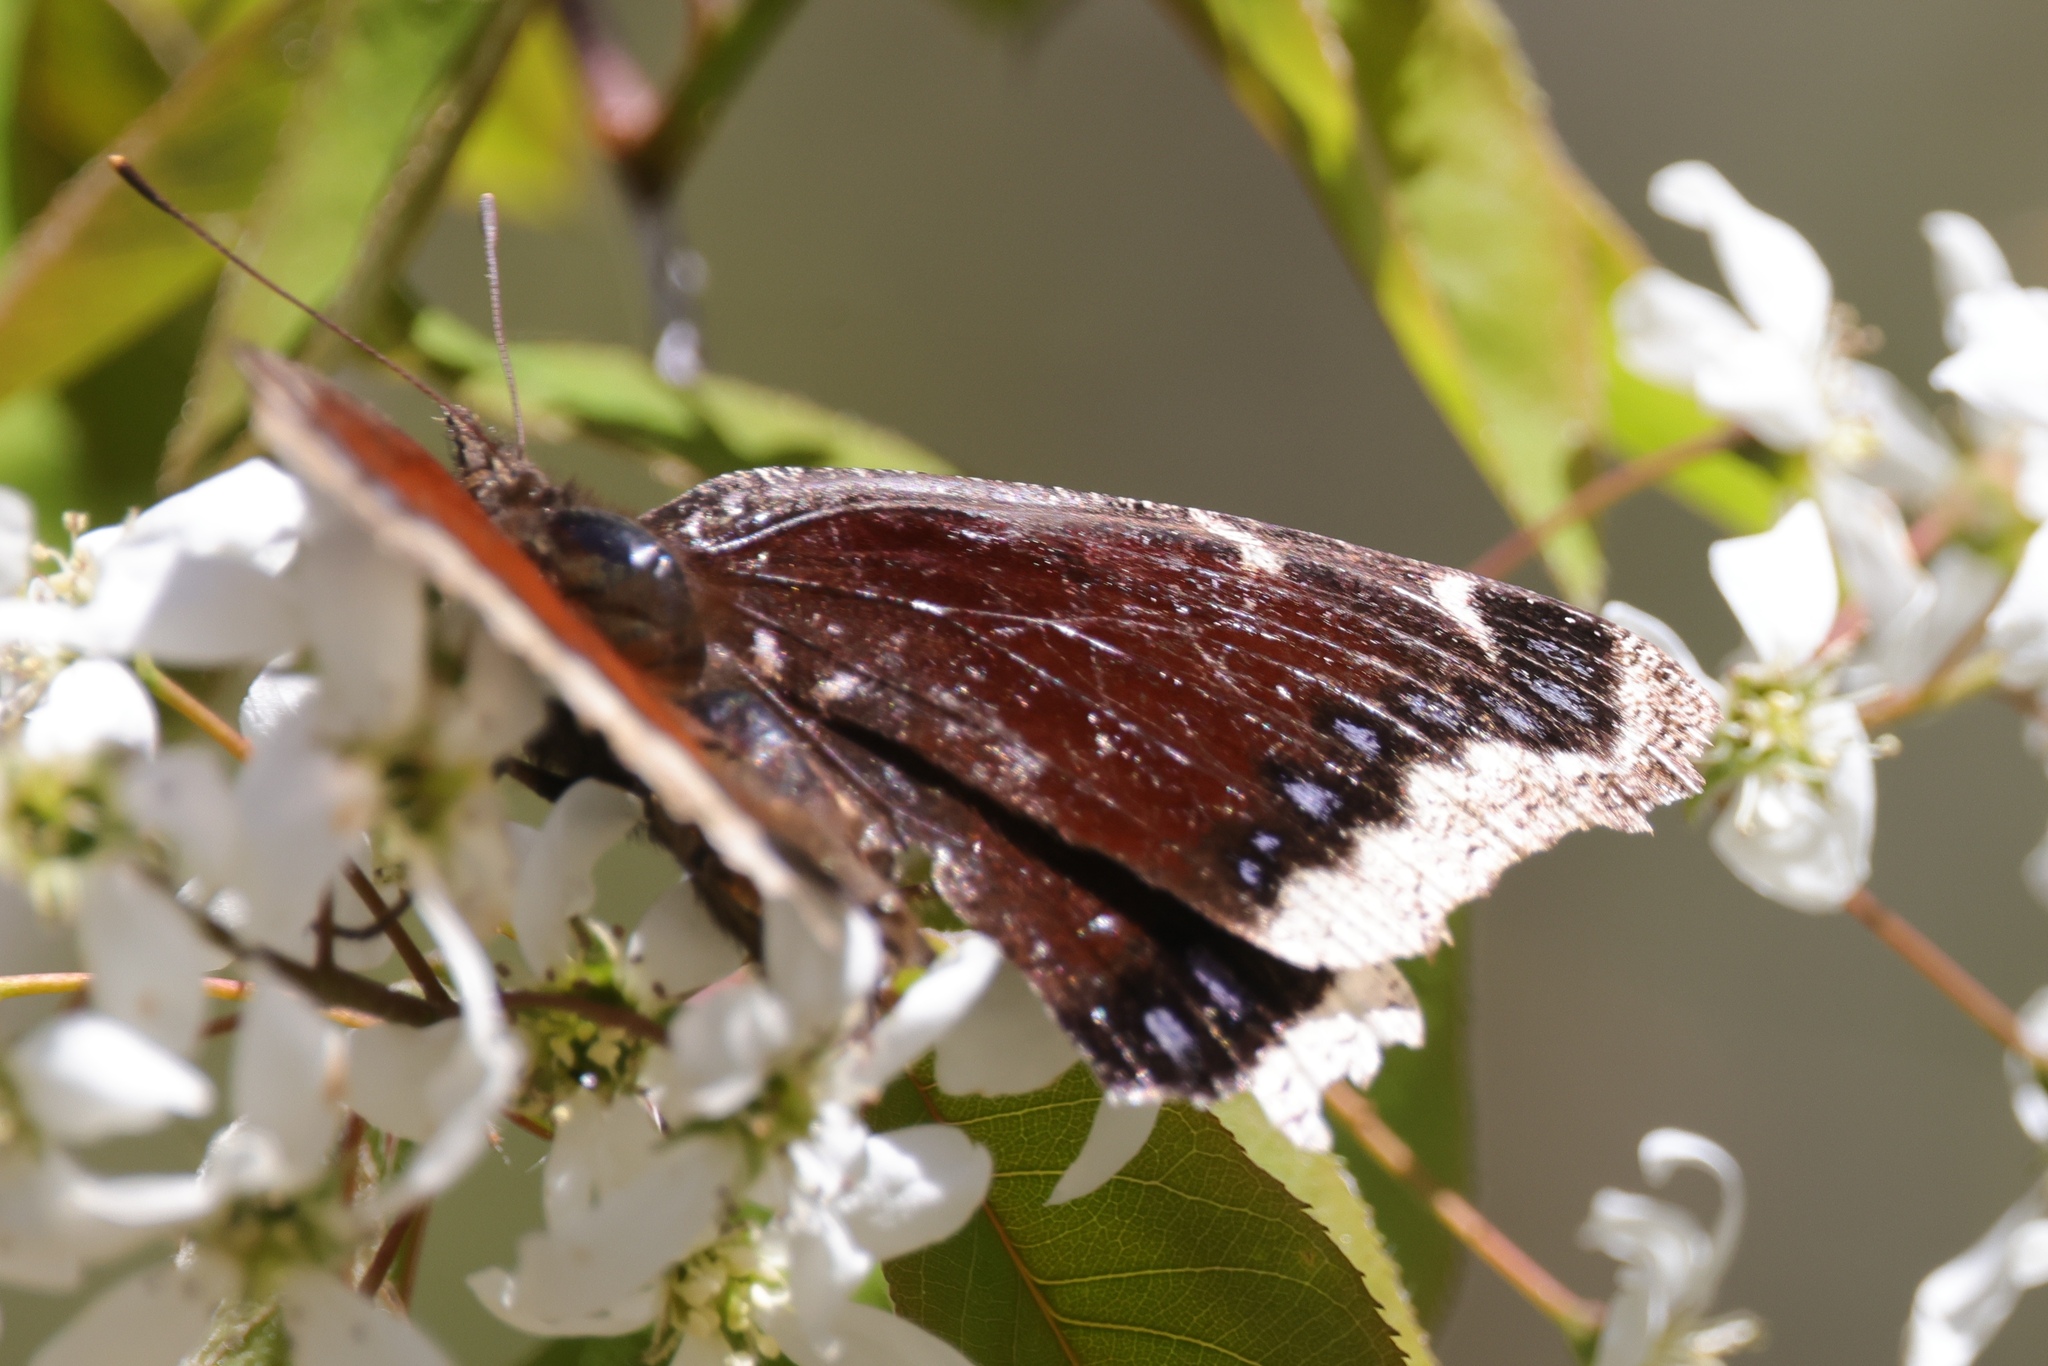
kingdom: Animalia
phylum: Arthropoda
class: Insecta
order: Lepidoptera
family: Nymphalidae
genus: Nymphalis
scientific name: Nymphalis antiopa
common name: Camberwell beauty
